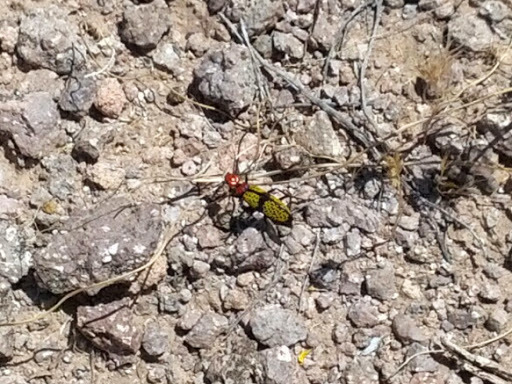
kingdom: Animalia
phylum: Arthropoda
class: Insecta
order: Coleoptera
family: Meloidae
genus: Tegrodera
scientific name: Tegrodera aloga
